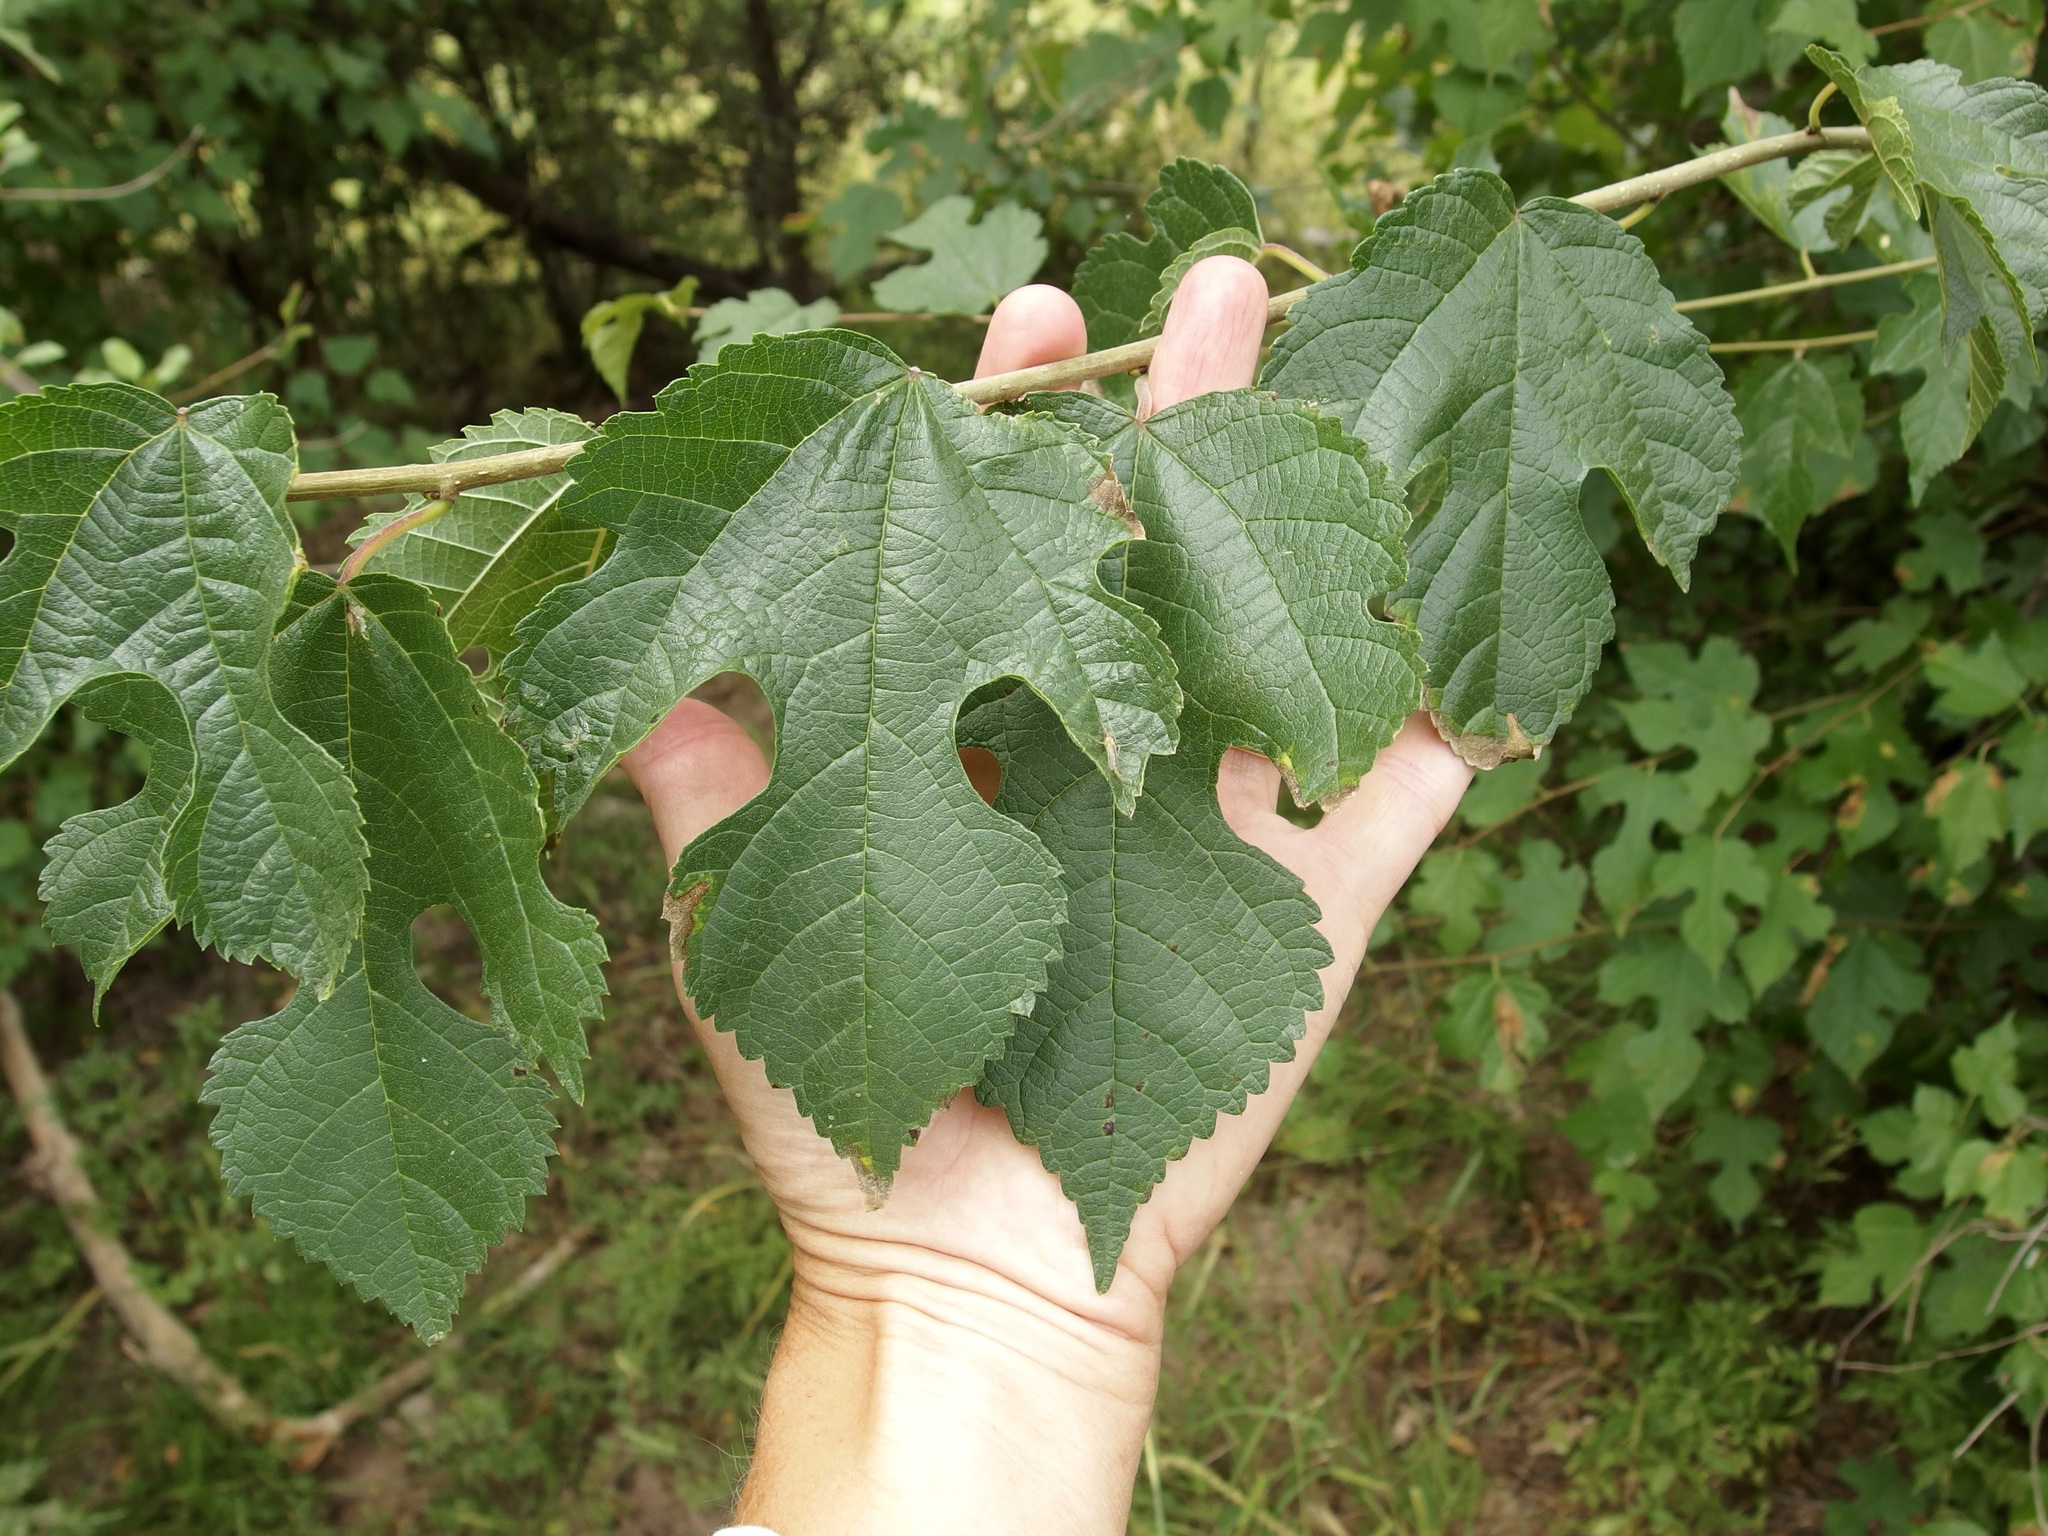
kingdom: Plantae
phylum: Tracheophyta
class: Magnoliopsida
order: Rosales
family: Moraceae
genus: Morus
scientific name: Morus microphylla
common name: Mexican mulberry
